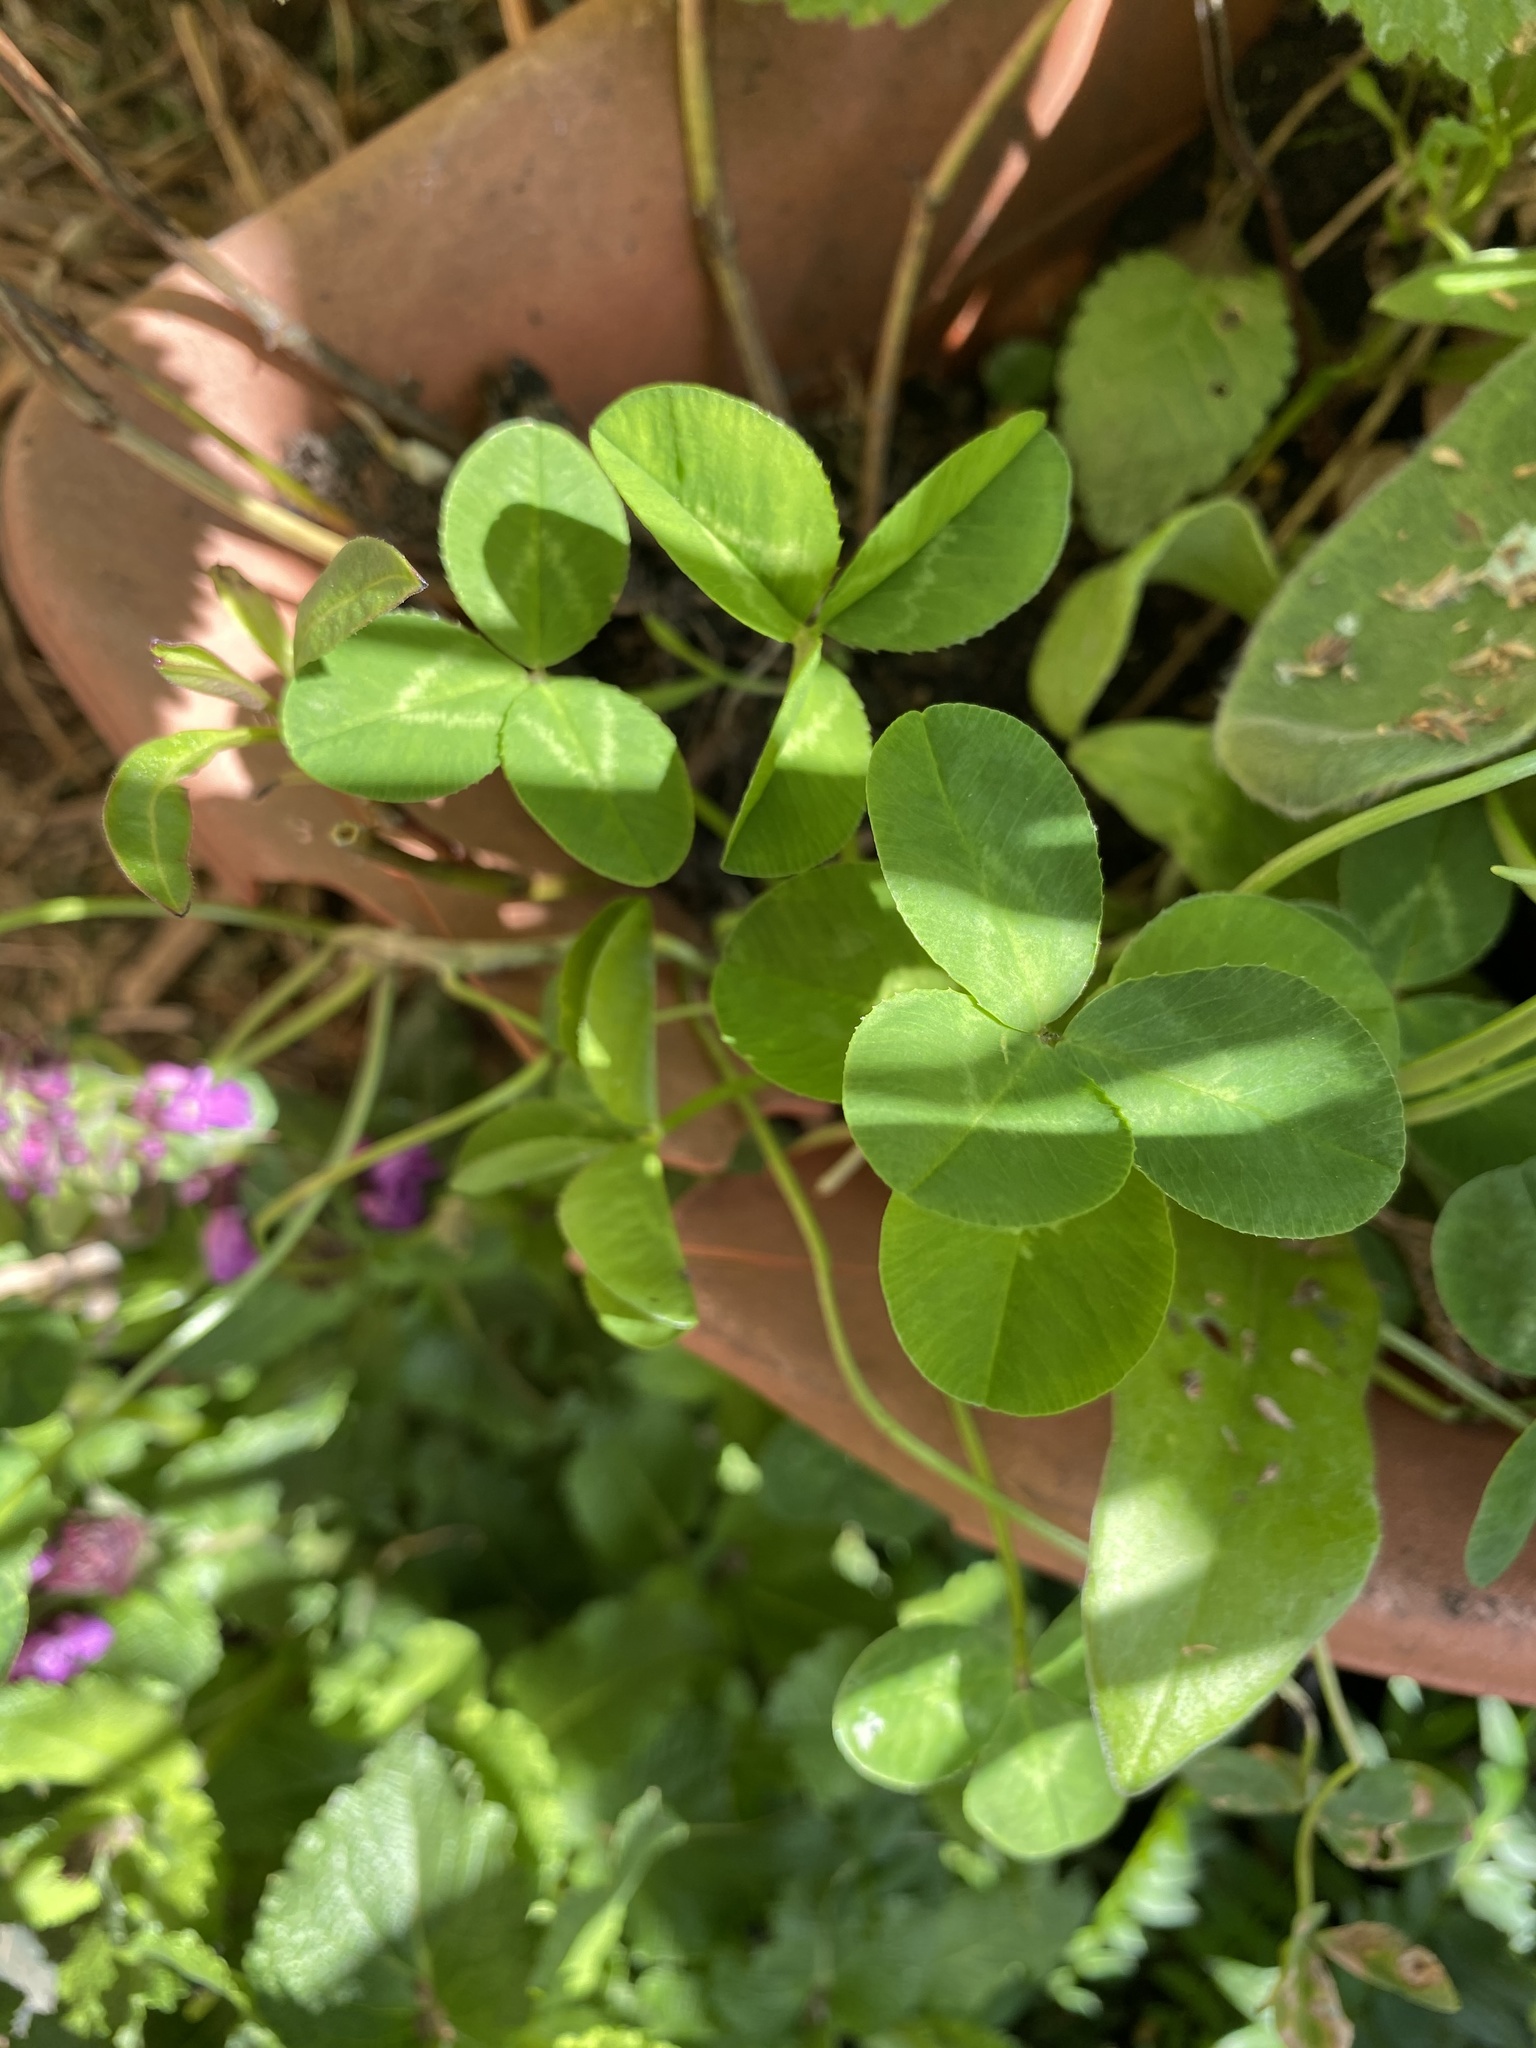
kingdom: Plantae
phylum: Tracheophyta
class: Magnoliopsida
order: Fabales
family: Fabaceae
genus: Trifolium
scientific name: Trifolium repens
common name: White clover
